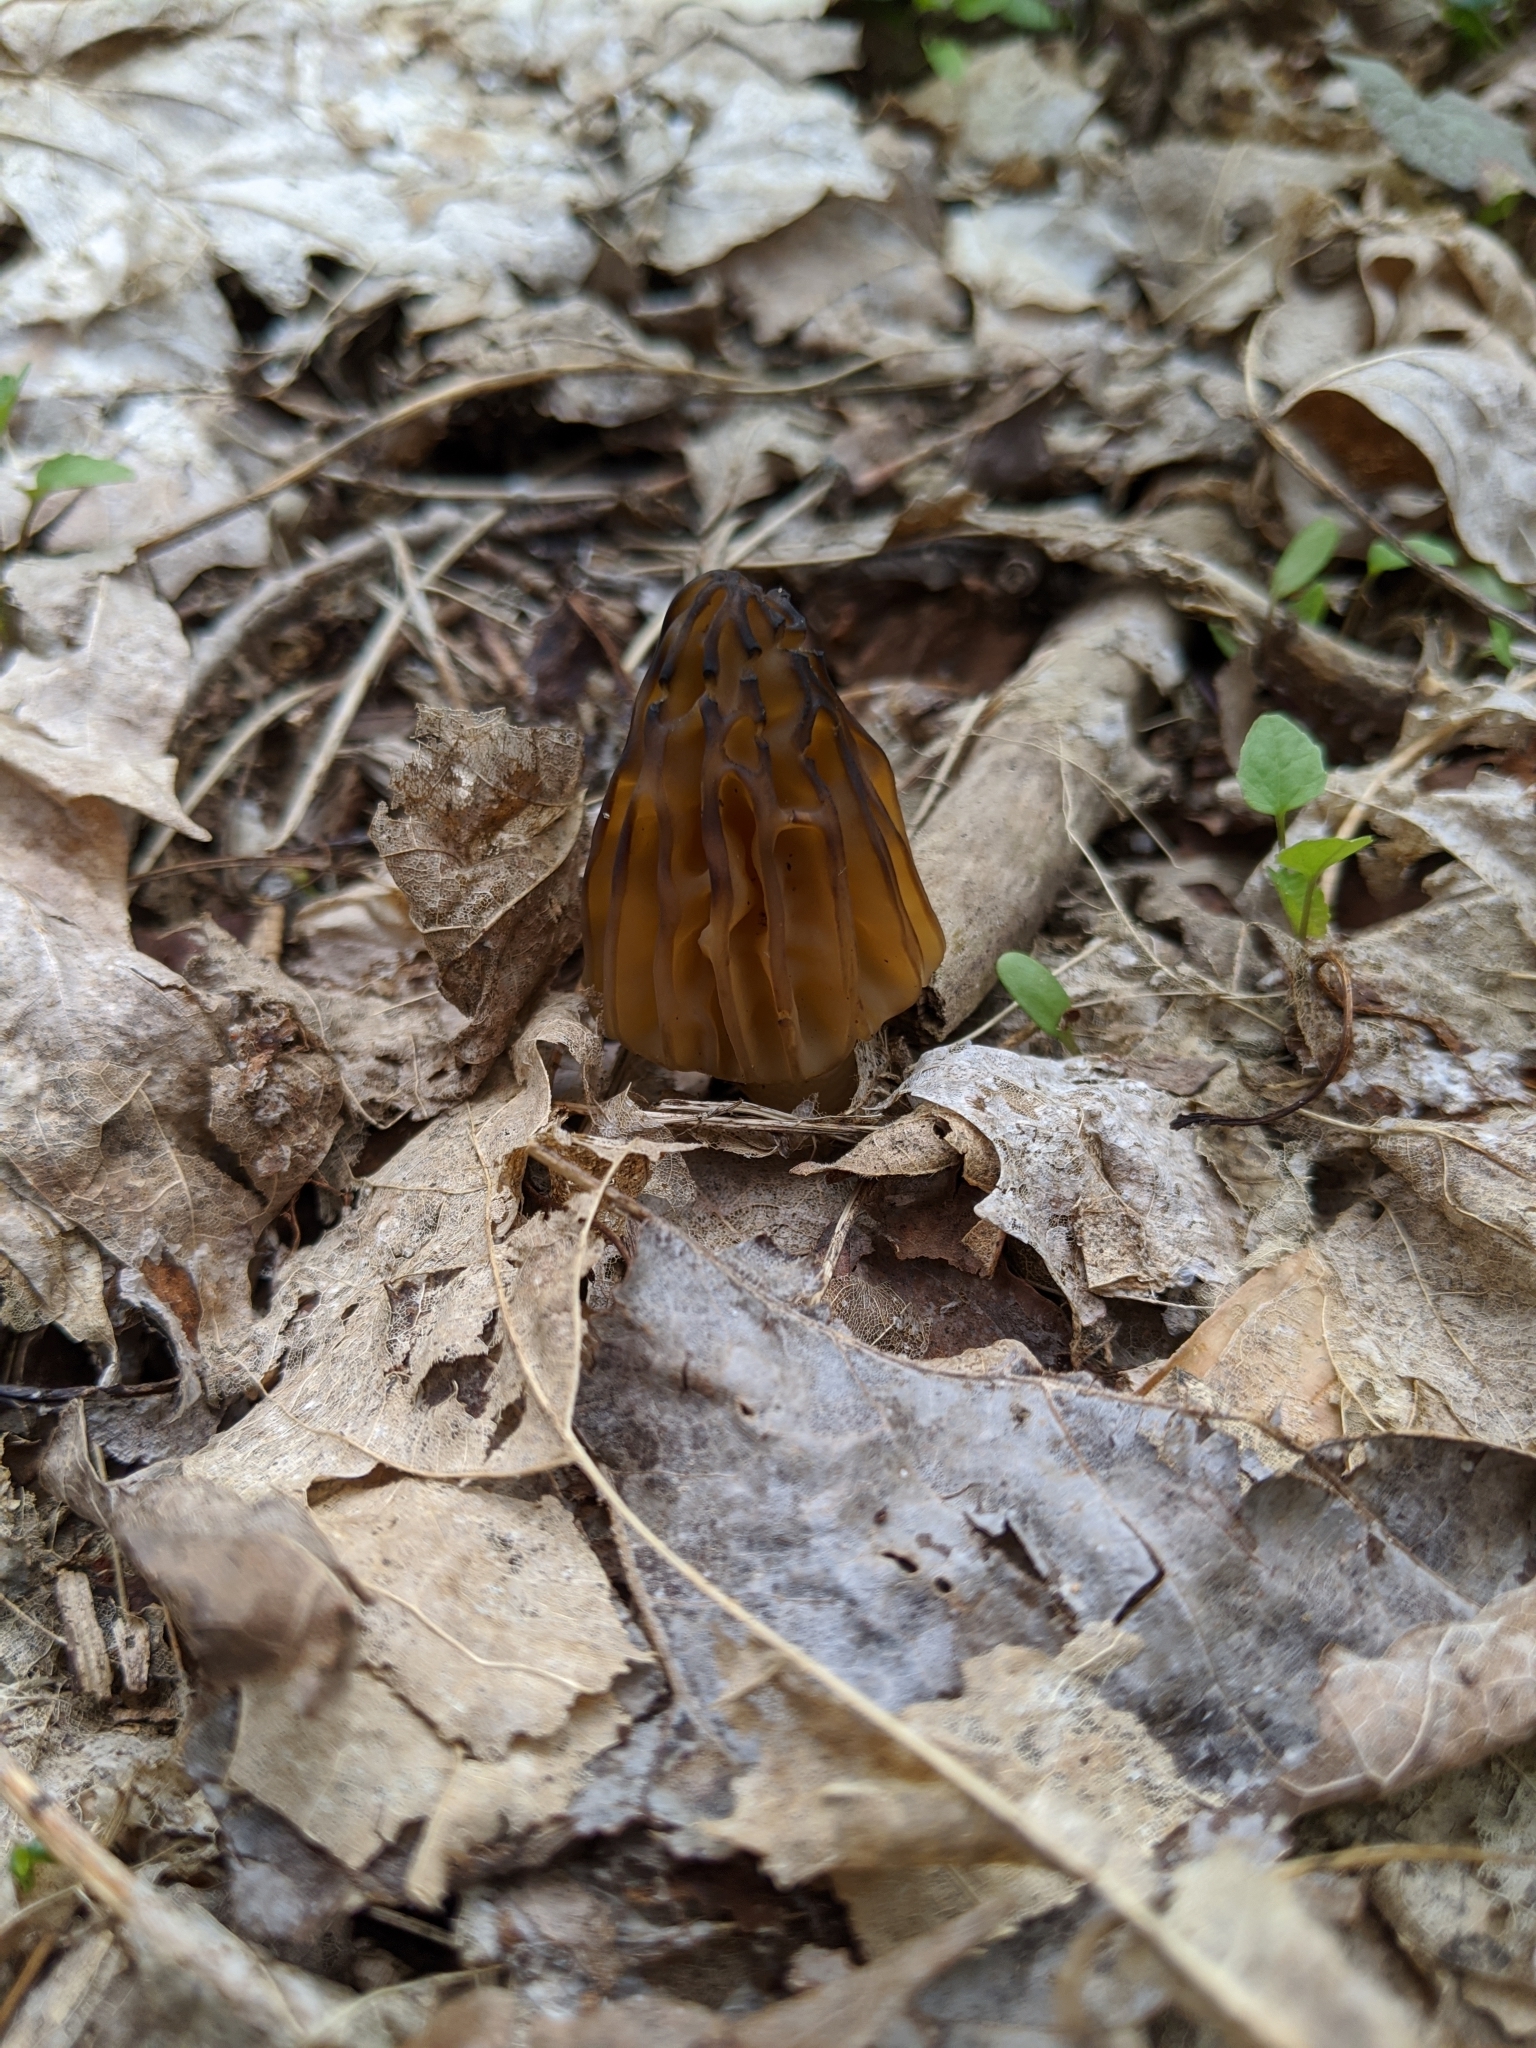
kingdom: Fungi
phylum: Ascomycota
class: Pezizomycetes
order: Pezizales
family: Morchellaceae
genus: Morchella
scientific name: Morchella punctipes
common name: Half-free morel
